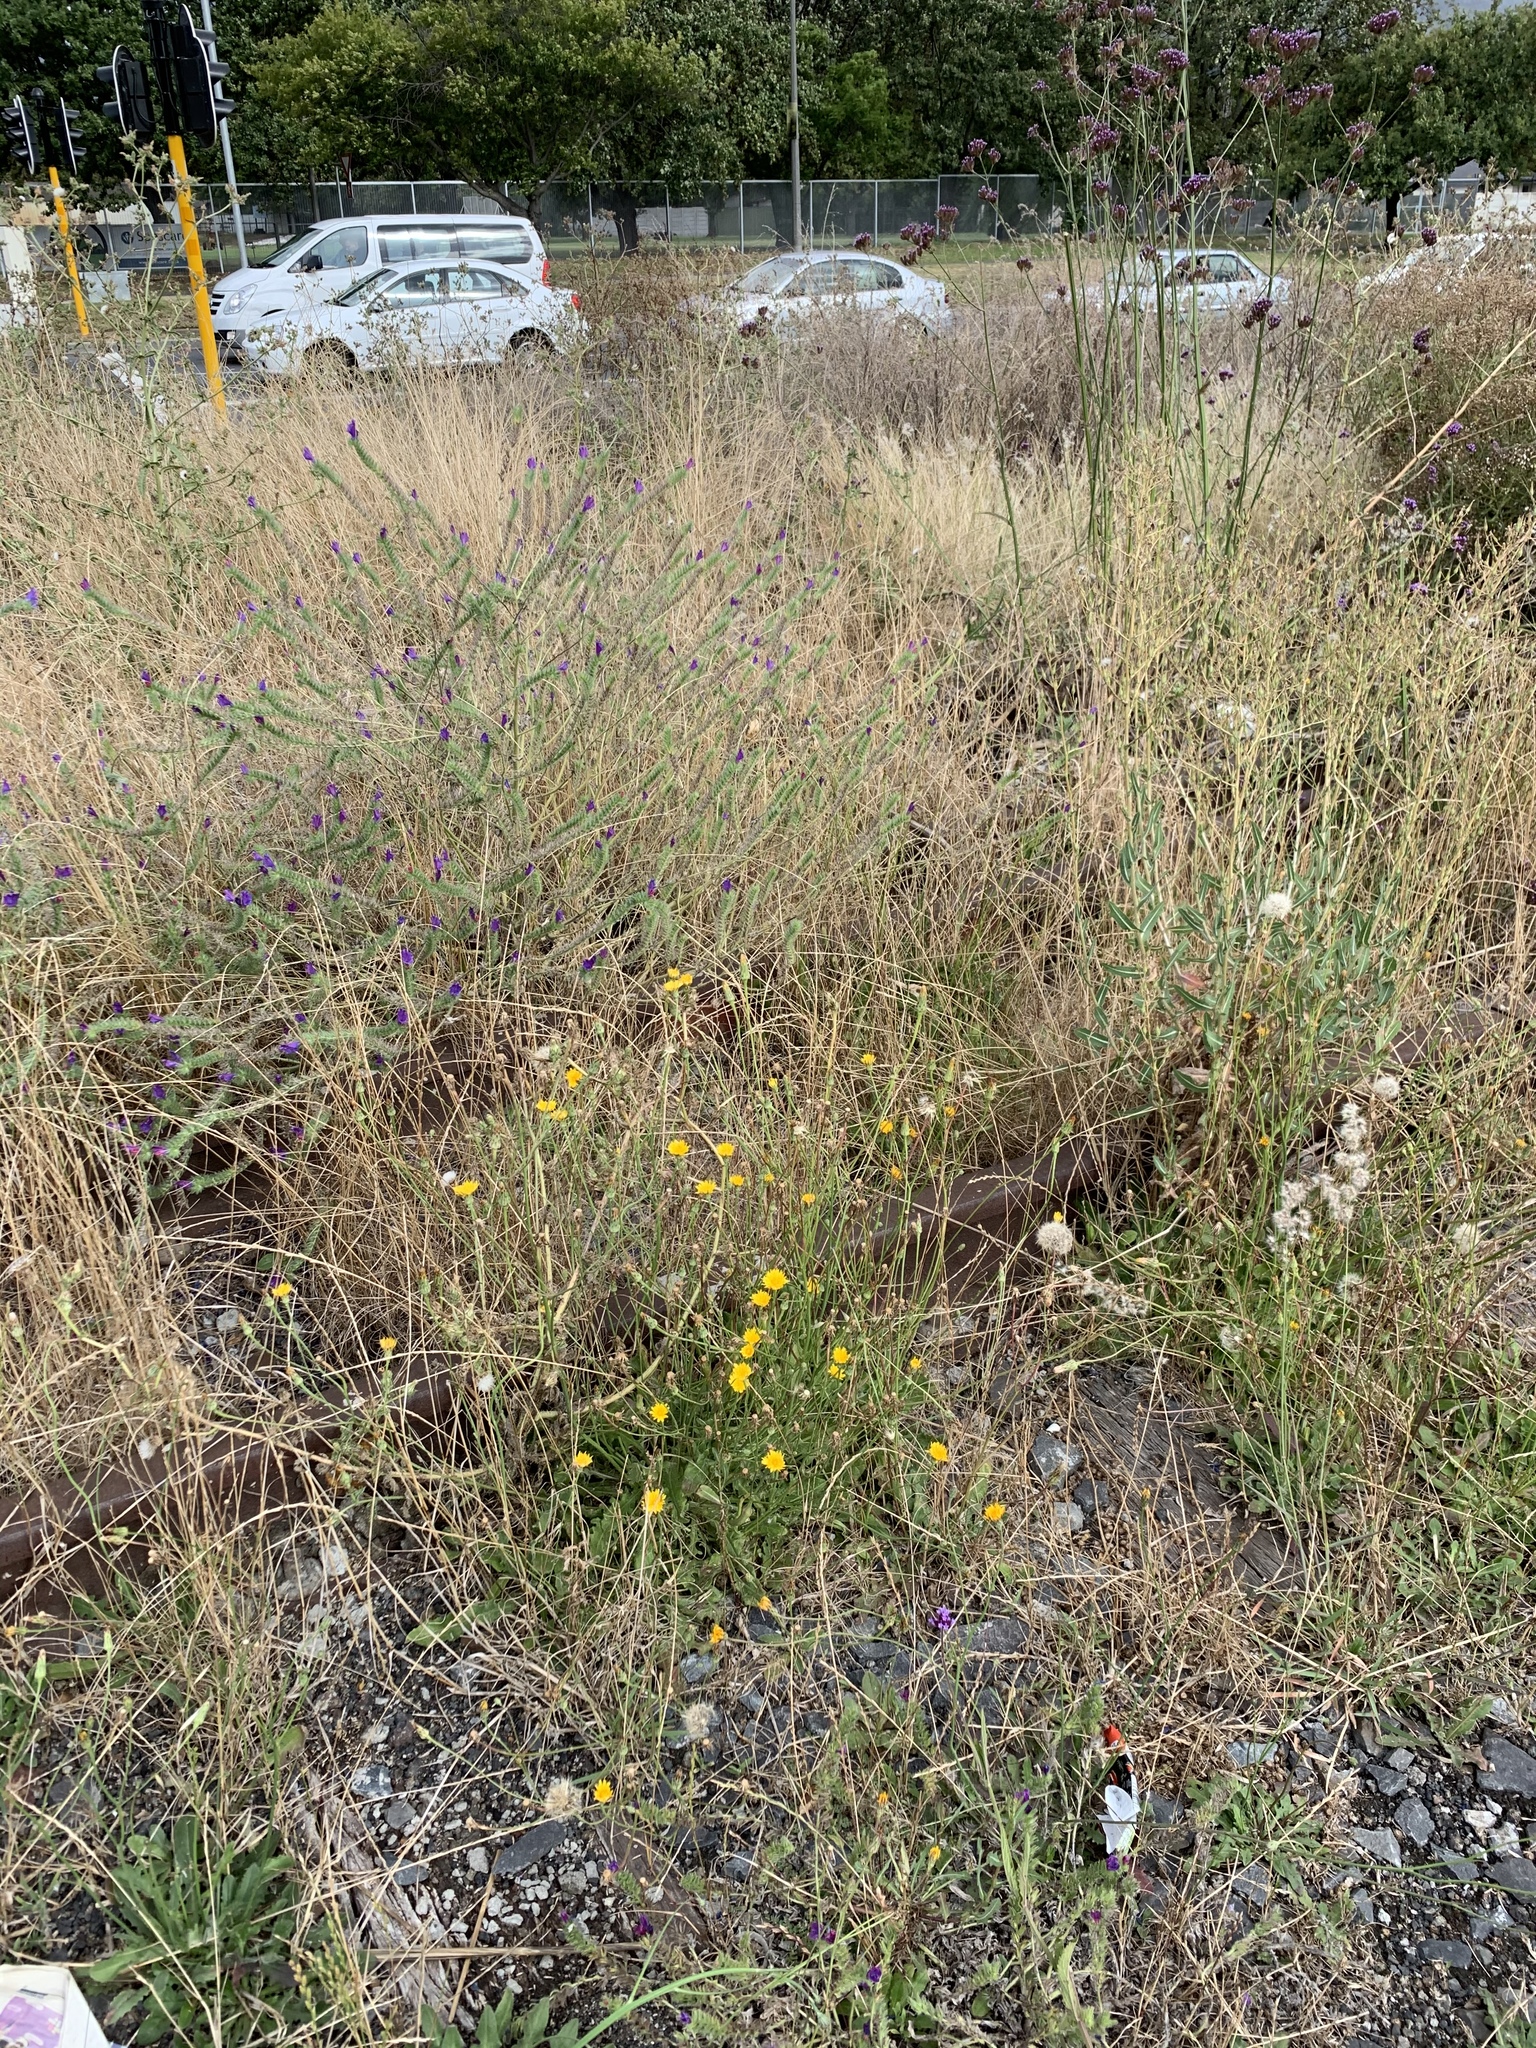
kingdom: Plantae
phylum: Tracheophyta
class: Magnoliopsida
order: Asterales
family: Asteraceae
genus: Hypochaeris
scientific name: Hypochaeris radicata
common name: Flatweed
